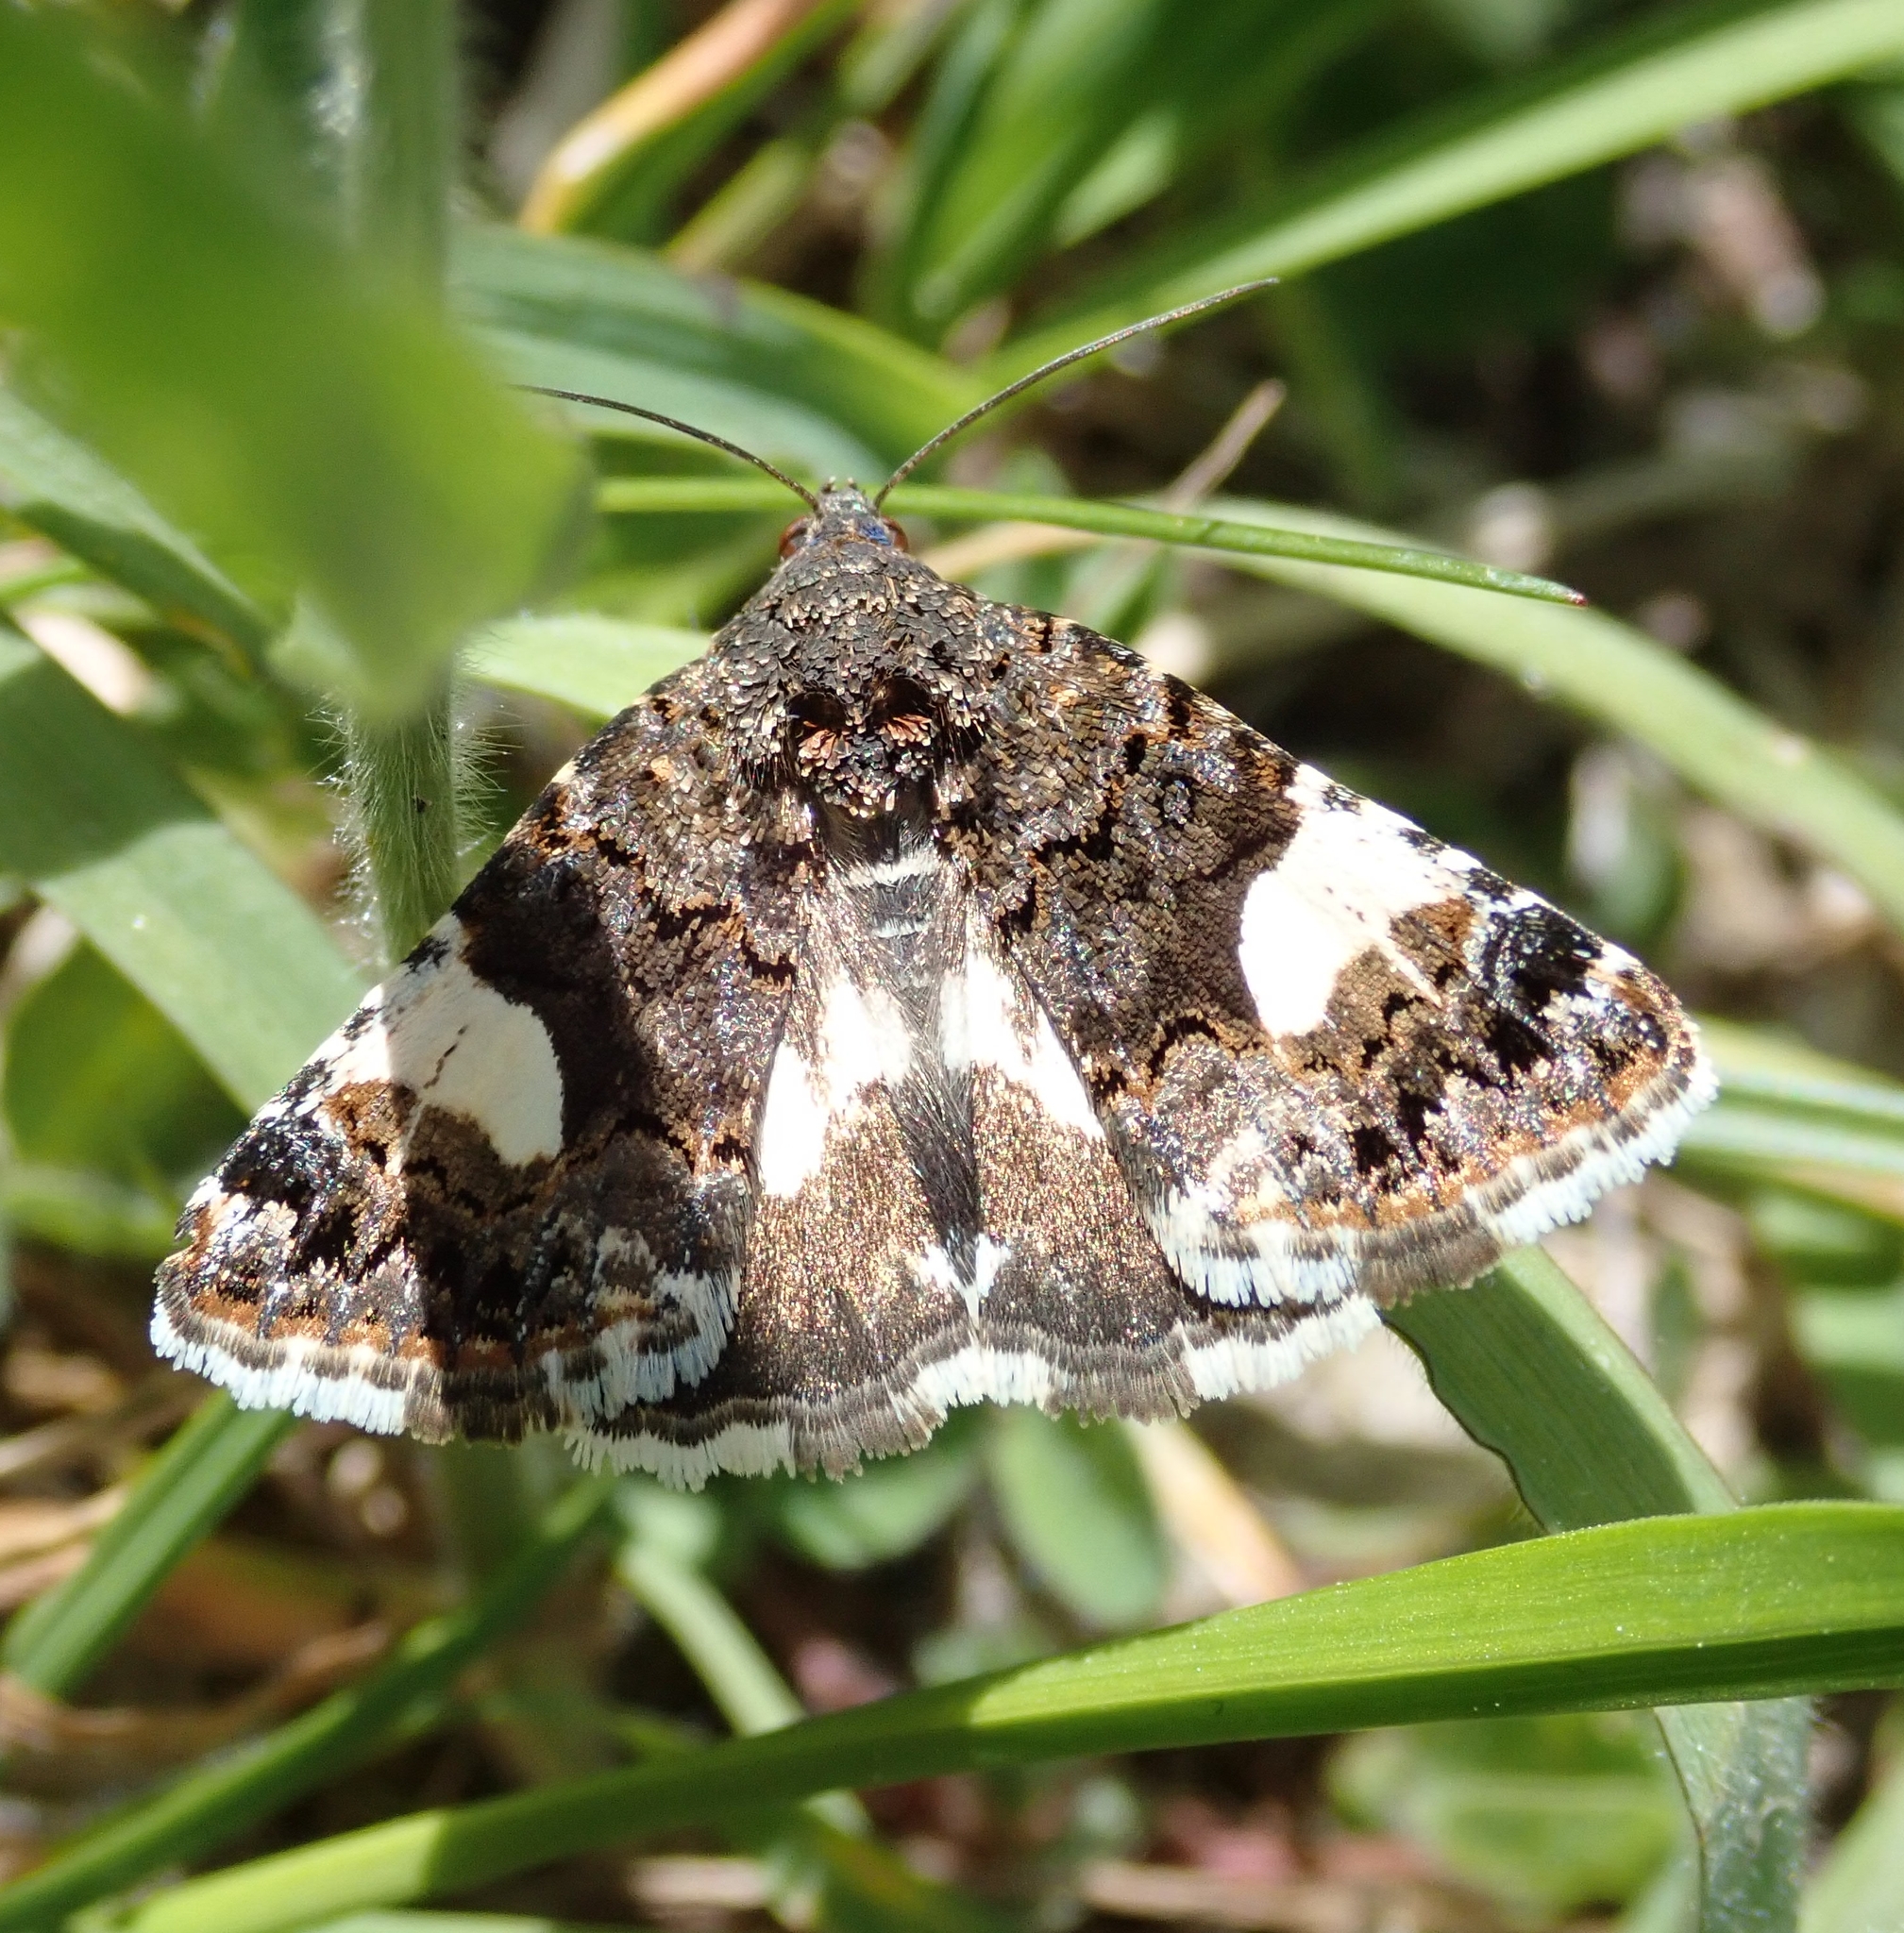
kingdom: Animalia
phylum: Arthropoda
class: Insecta
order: Lepidoptera
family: Erebidae
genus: Tyta
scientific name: Tyta luctuosa
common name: Four-spotted
